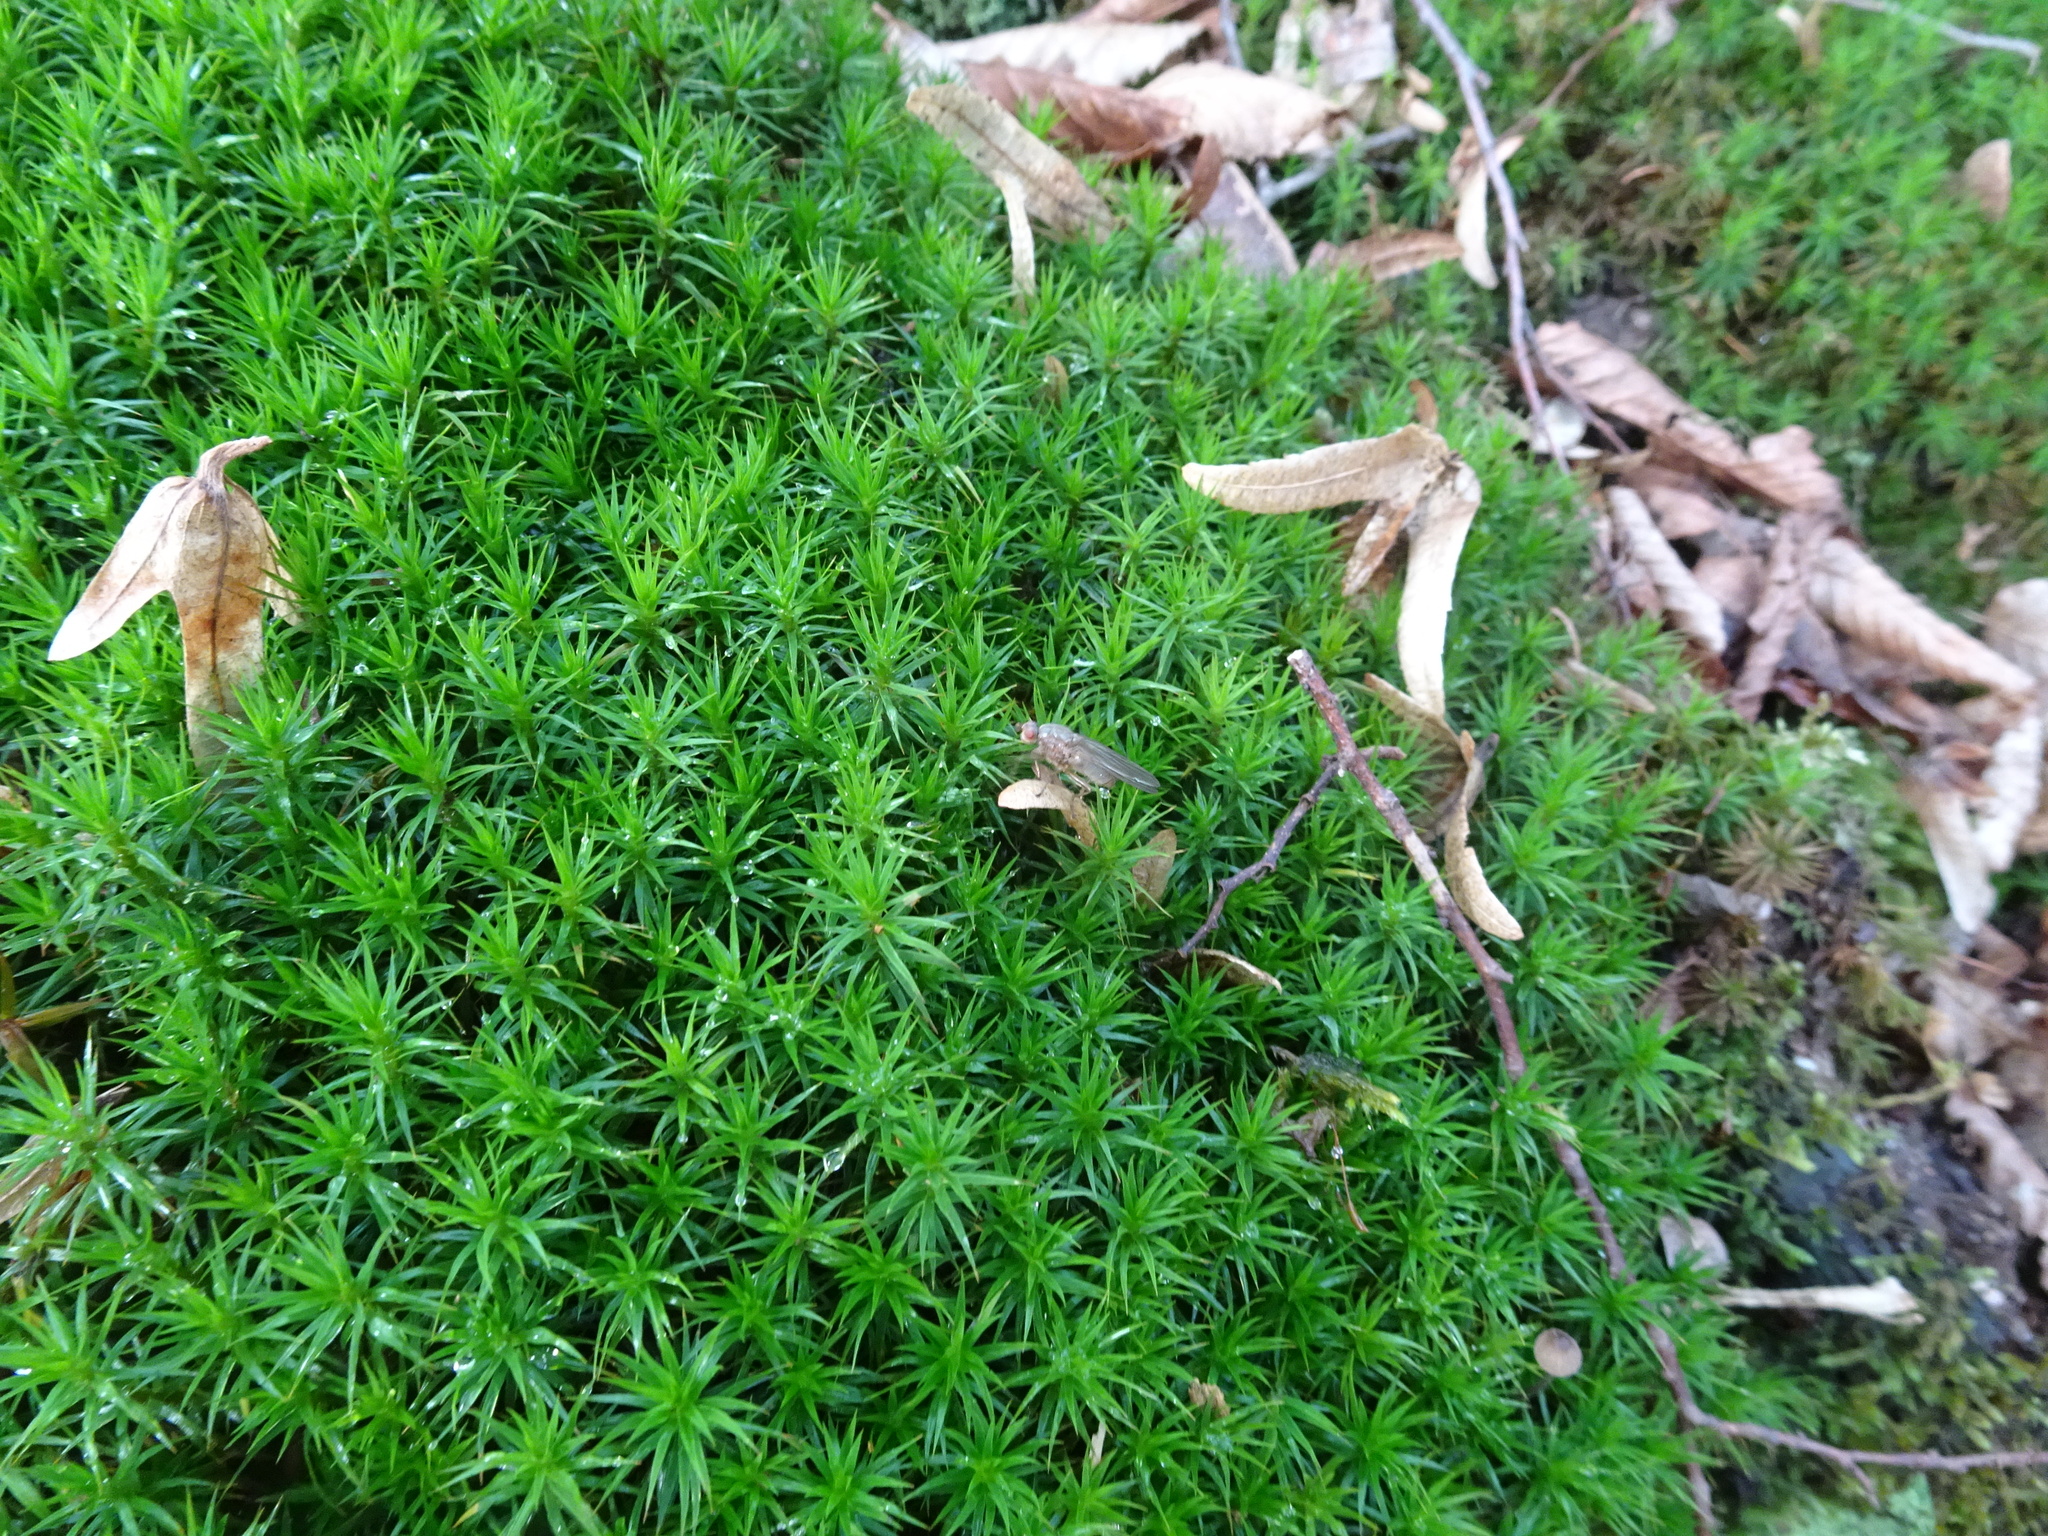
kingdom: Plantae
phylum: Bryophyta
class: Polytrichopsida
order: Polytrichales
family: Polytrichaceae
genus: Polytrichum
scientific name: Polytrichum formosum
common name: Bank haircap moss
